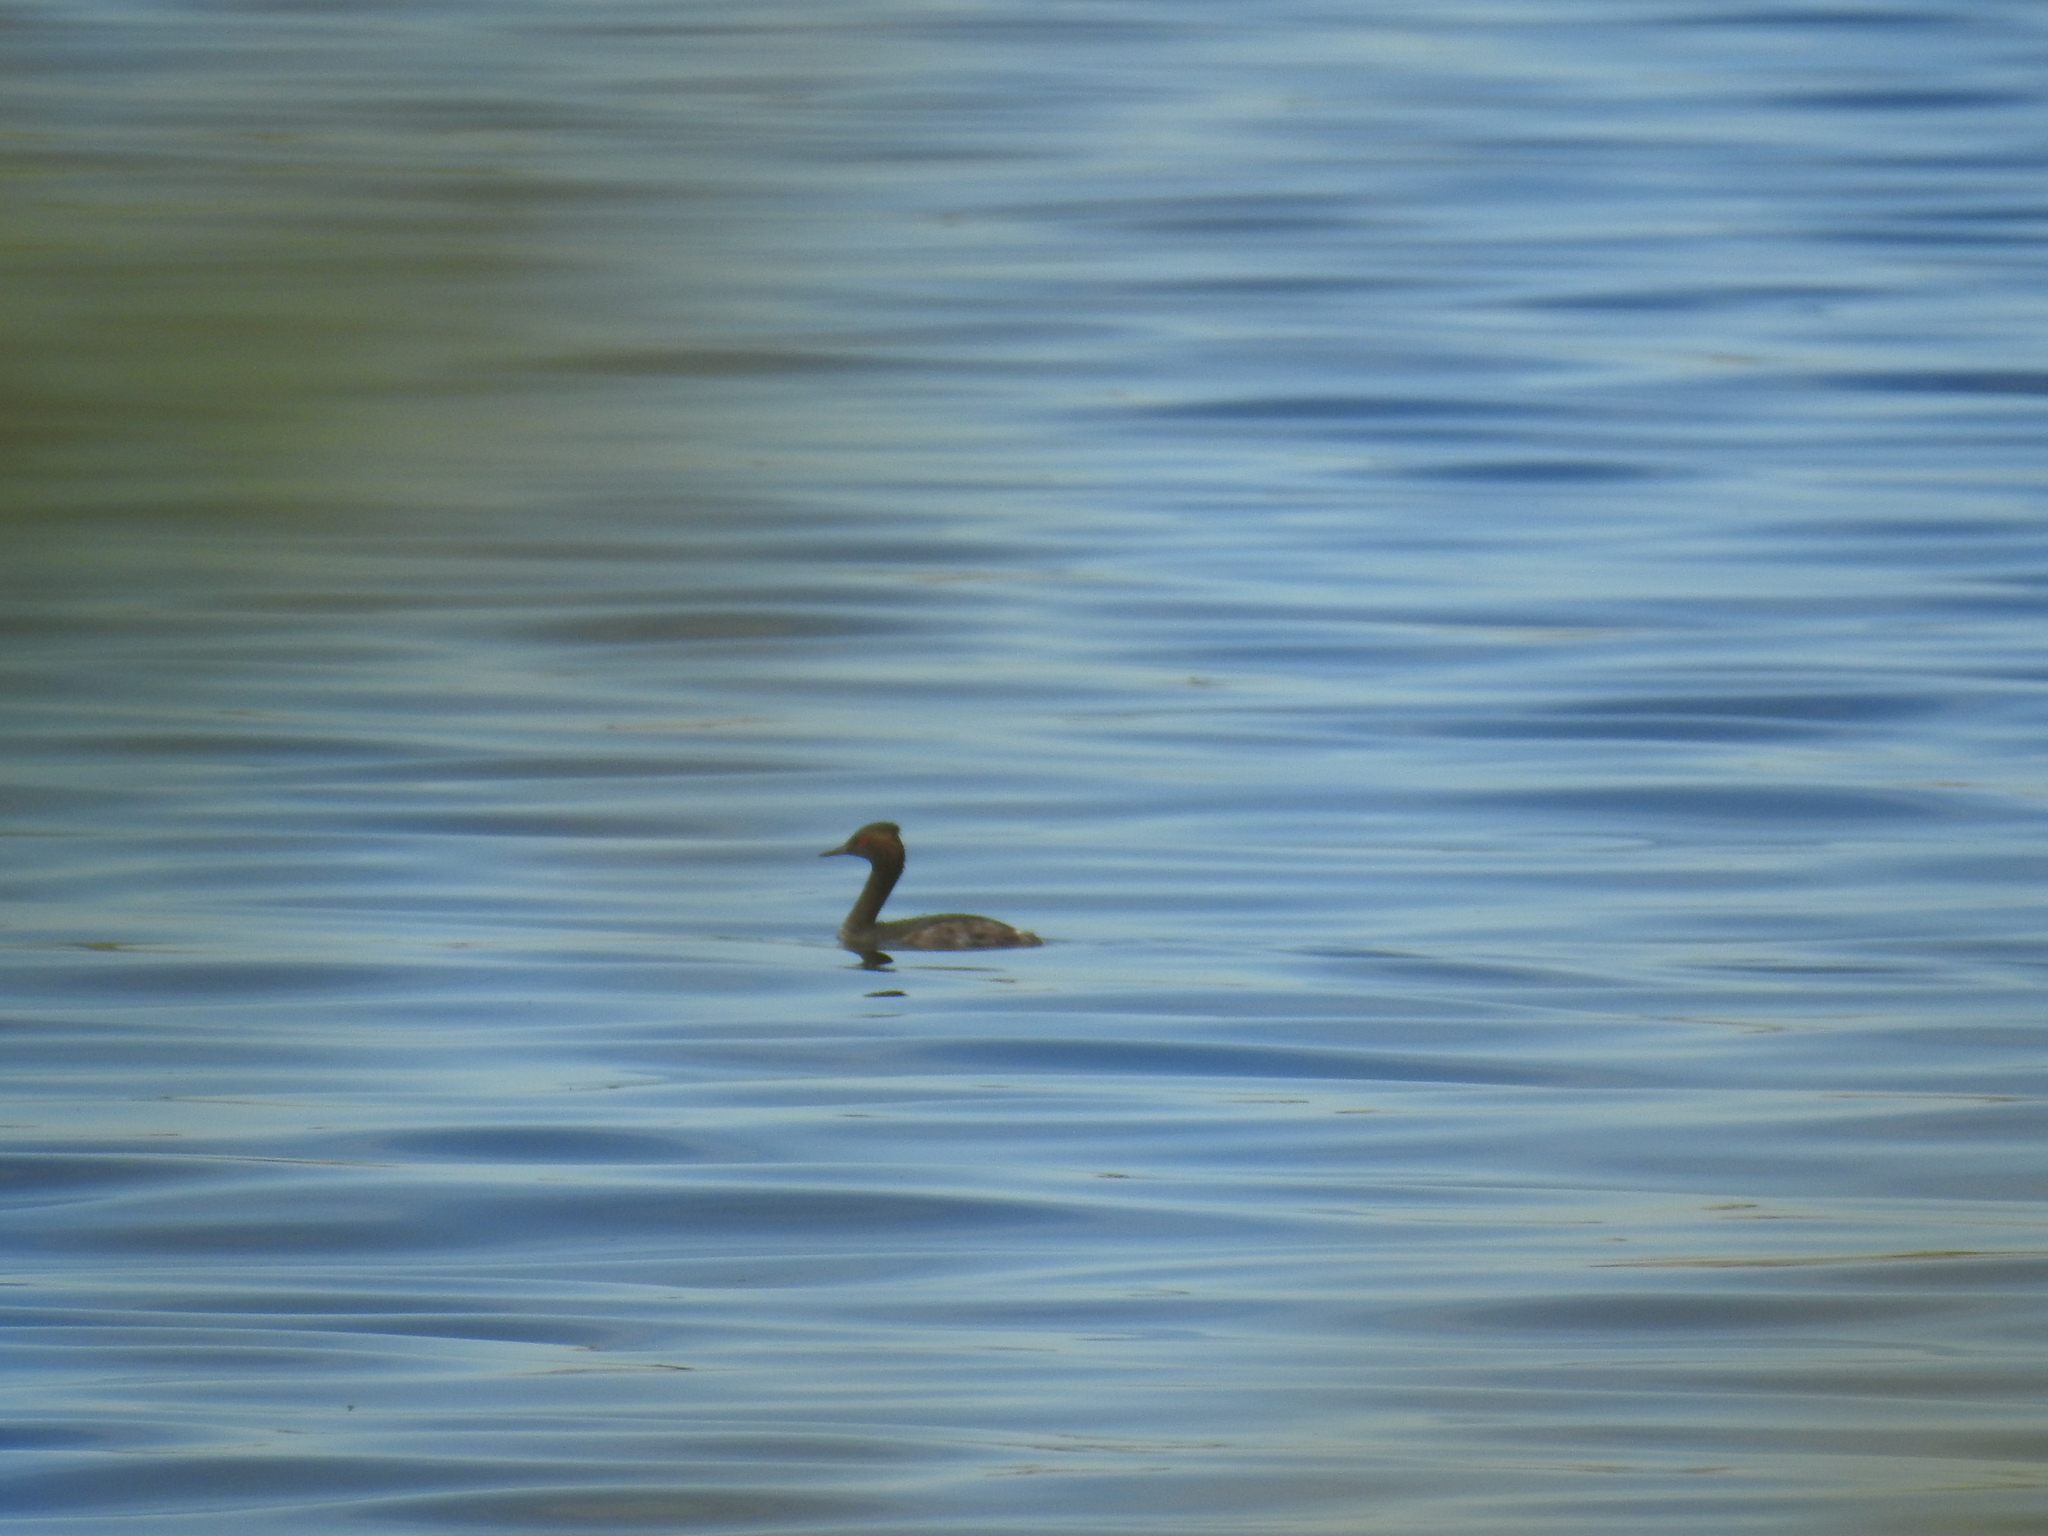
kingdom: Animalia
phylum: Chordata
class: Aves
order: Podicipediformes
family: Podicipedidae
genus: Podiceps
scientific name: Podiceps nigricollis
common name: Black-necked grebe
